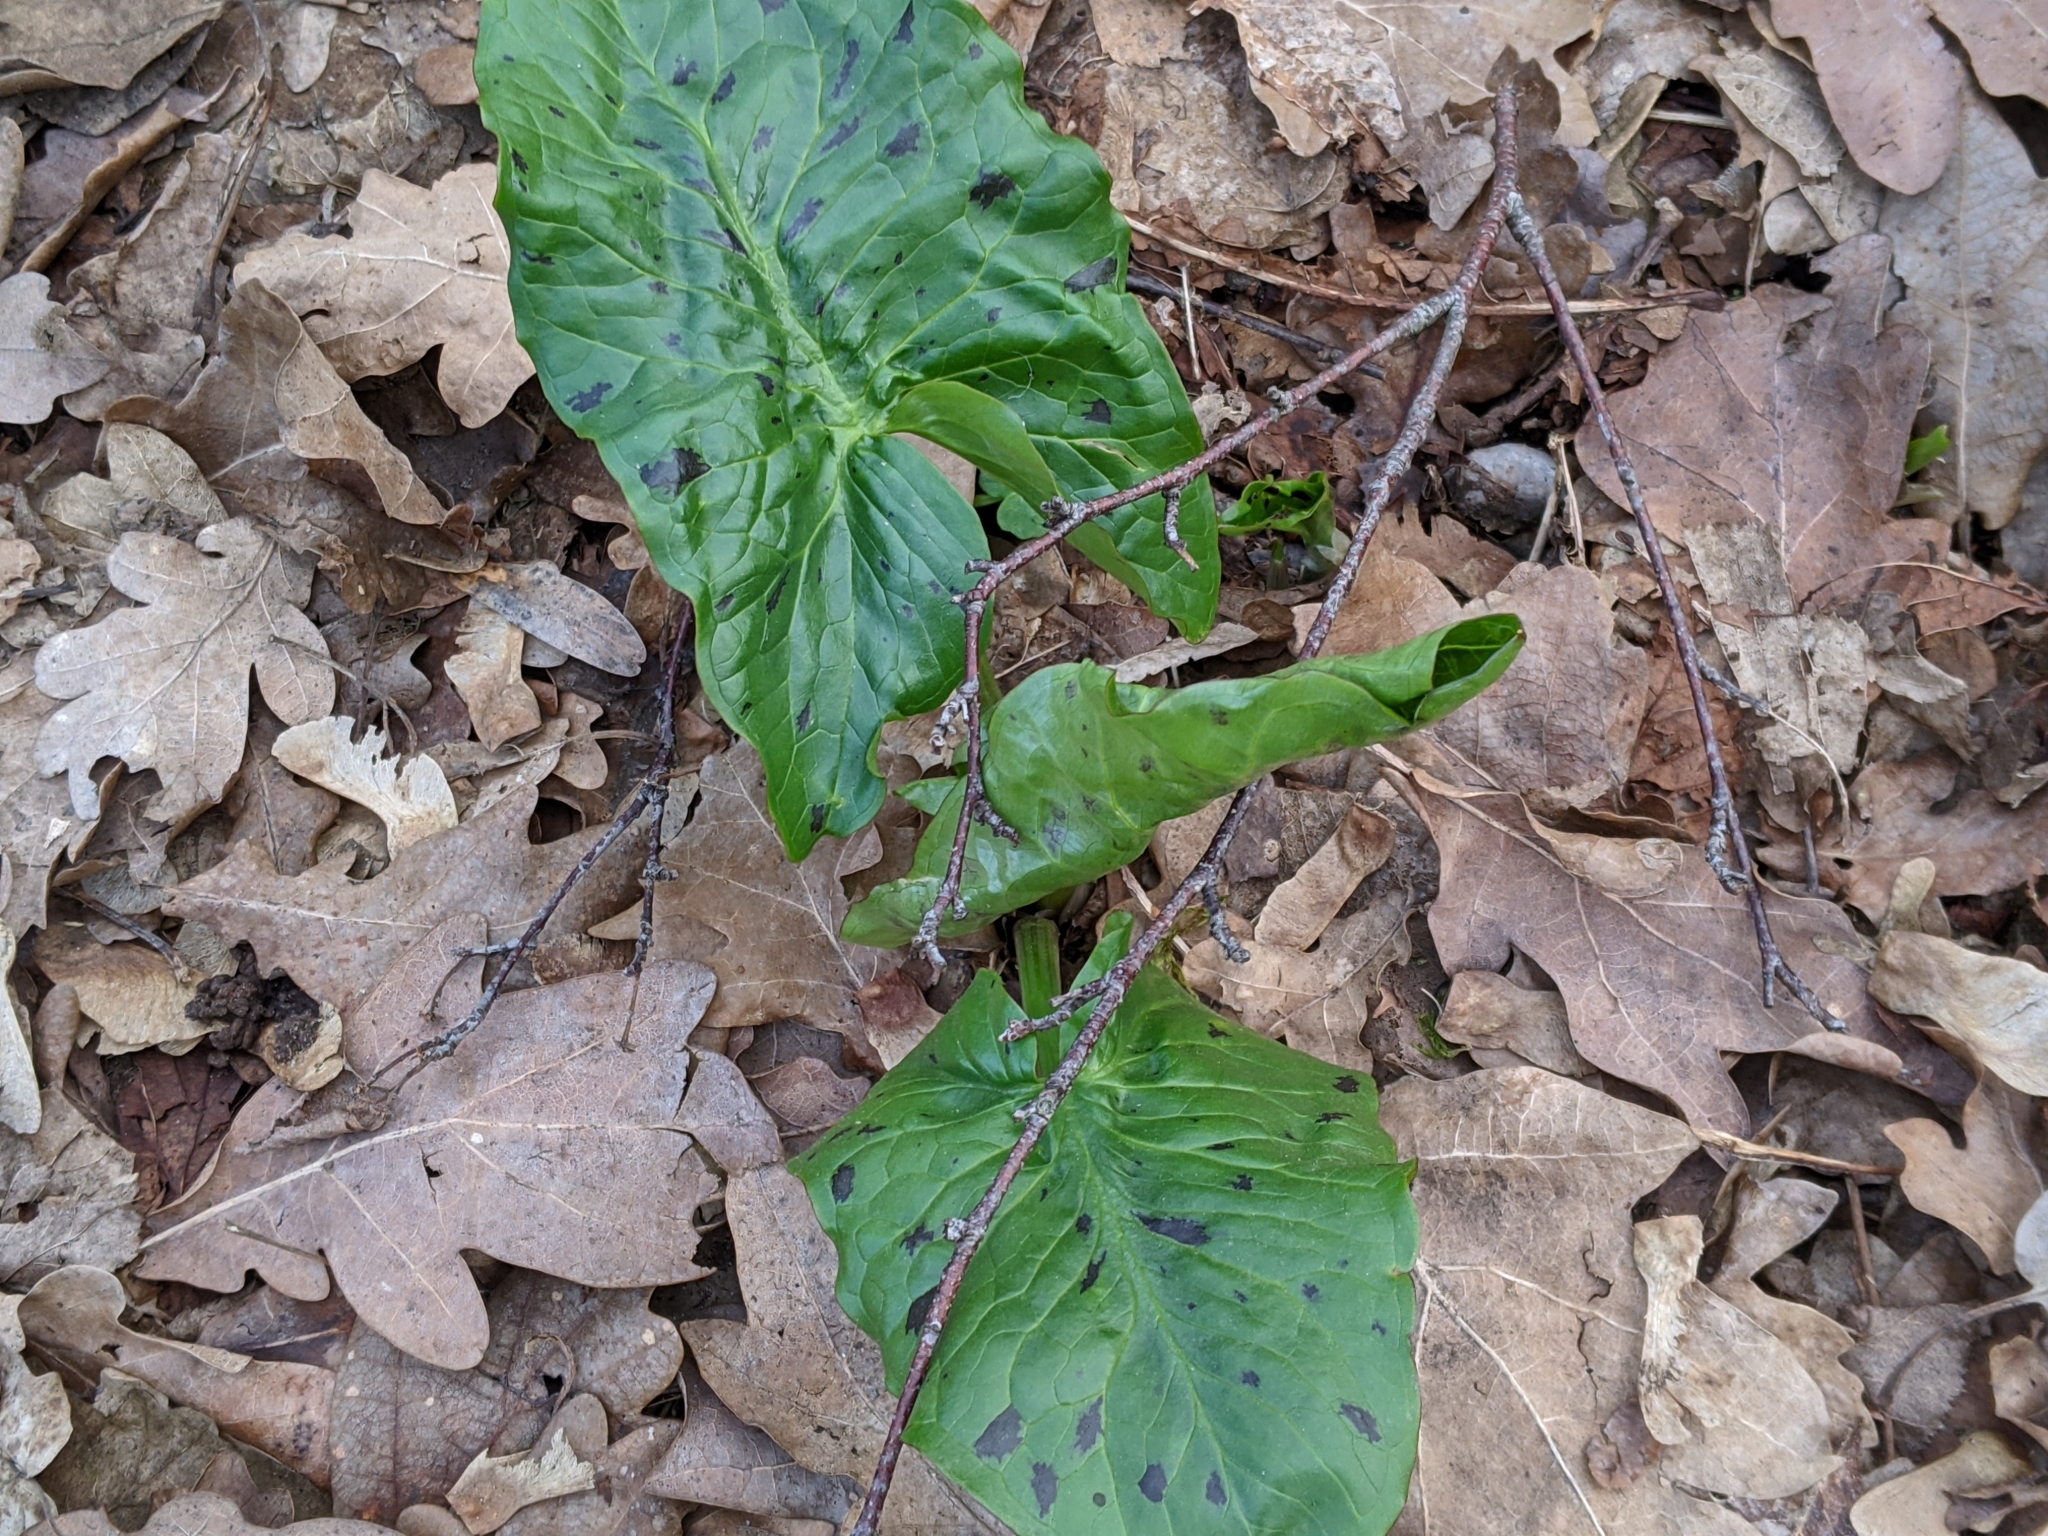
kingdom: Plantae
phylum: Tracheophyta
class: Liliopsida
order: Alismatales
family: Araceae
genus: Arum
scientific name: Arum maculatum
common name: Lords-and-ladies
